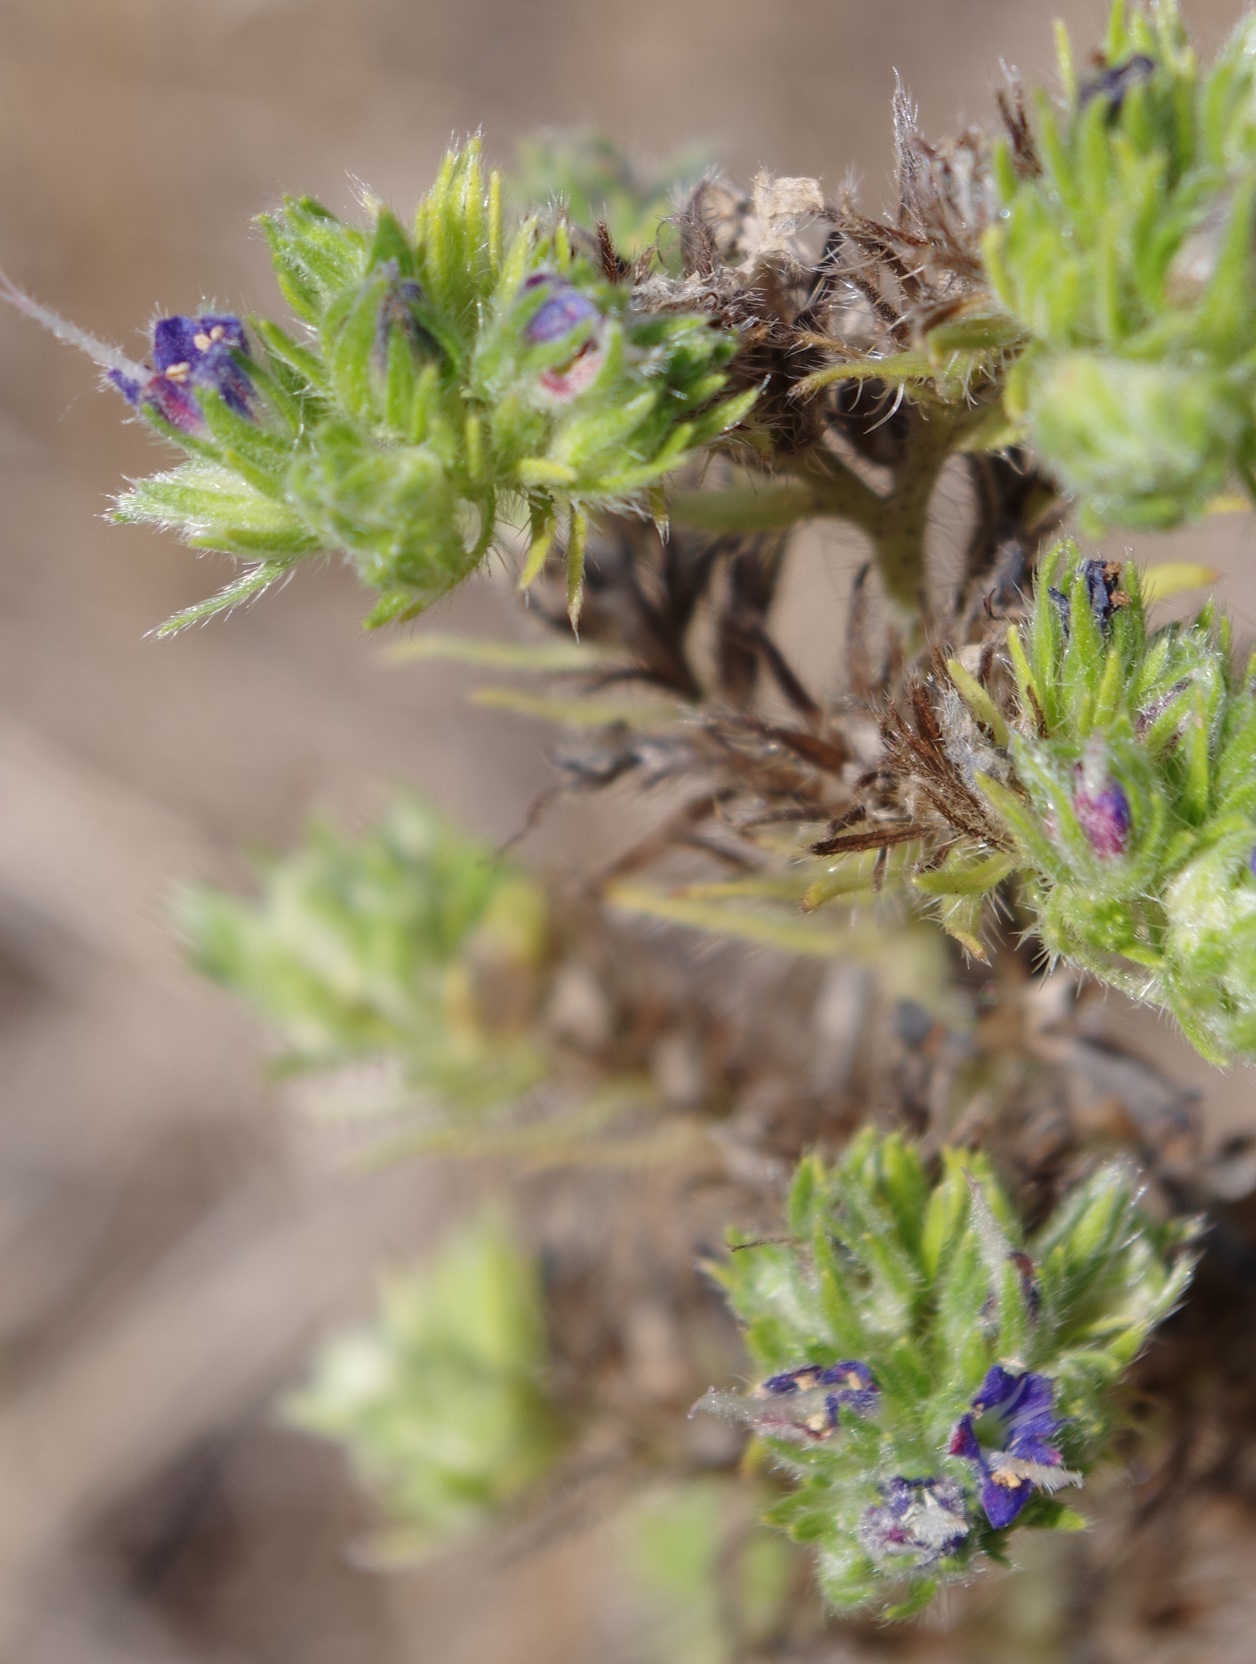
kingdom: Animalia
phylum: Arthropoda
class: Arachnida
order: Trombidiformes
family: Eriophyidae
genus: Aceria
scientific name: Aceria echii
